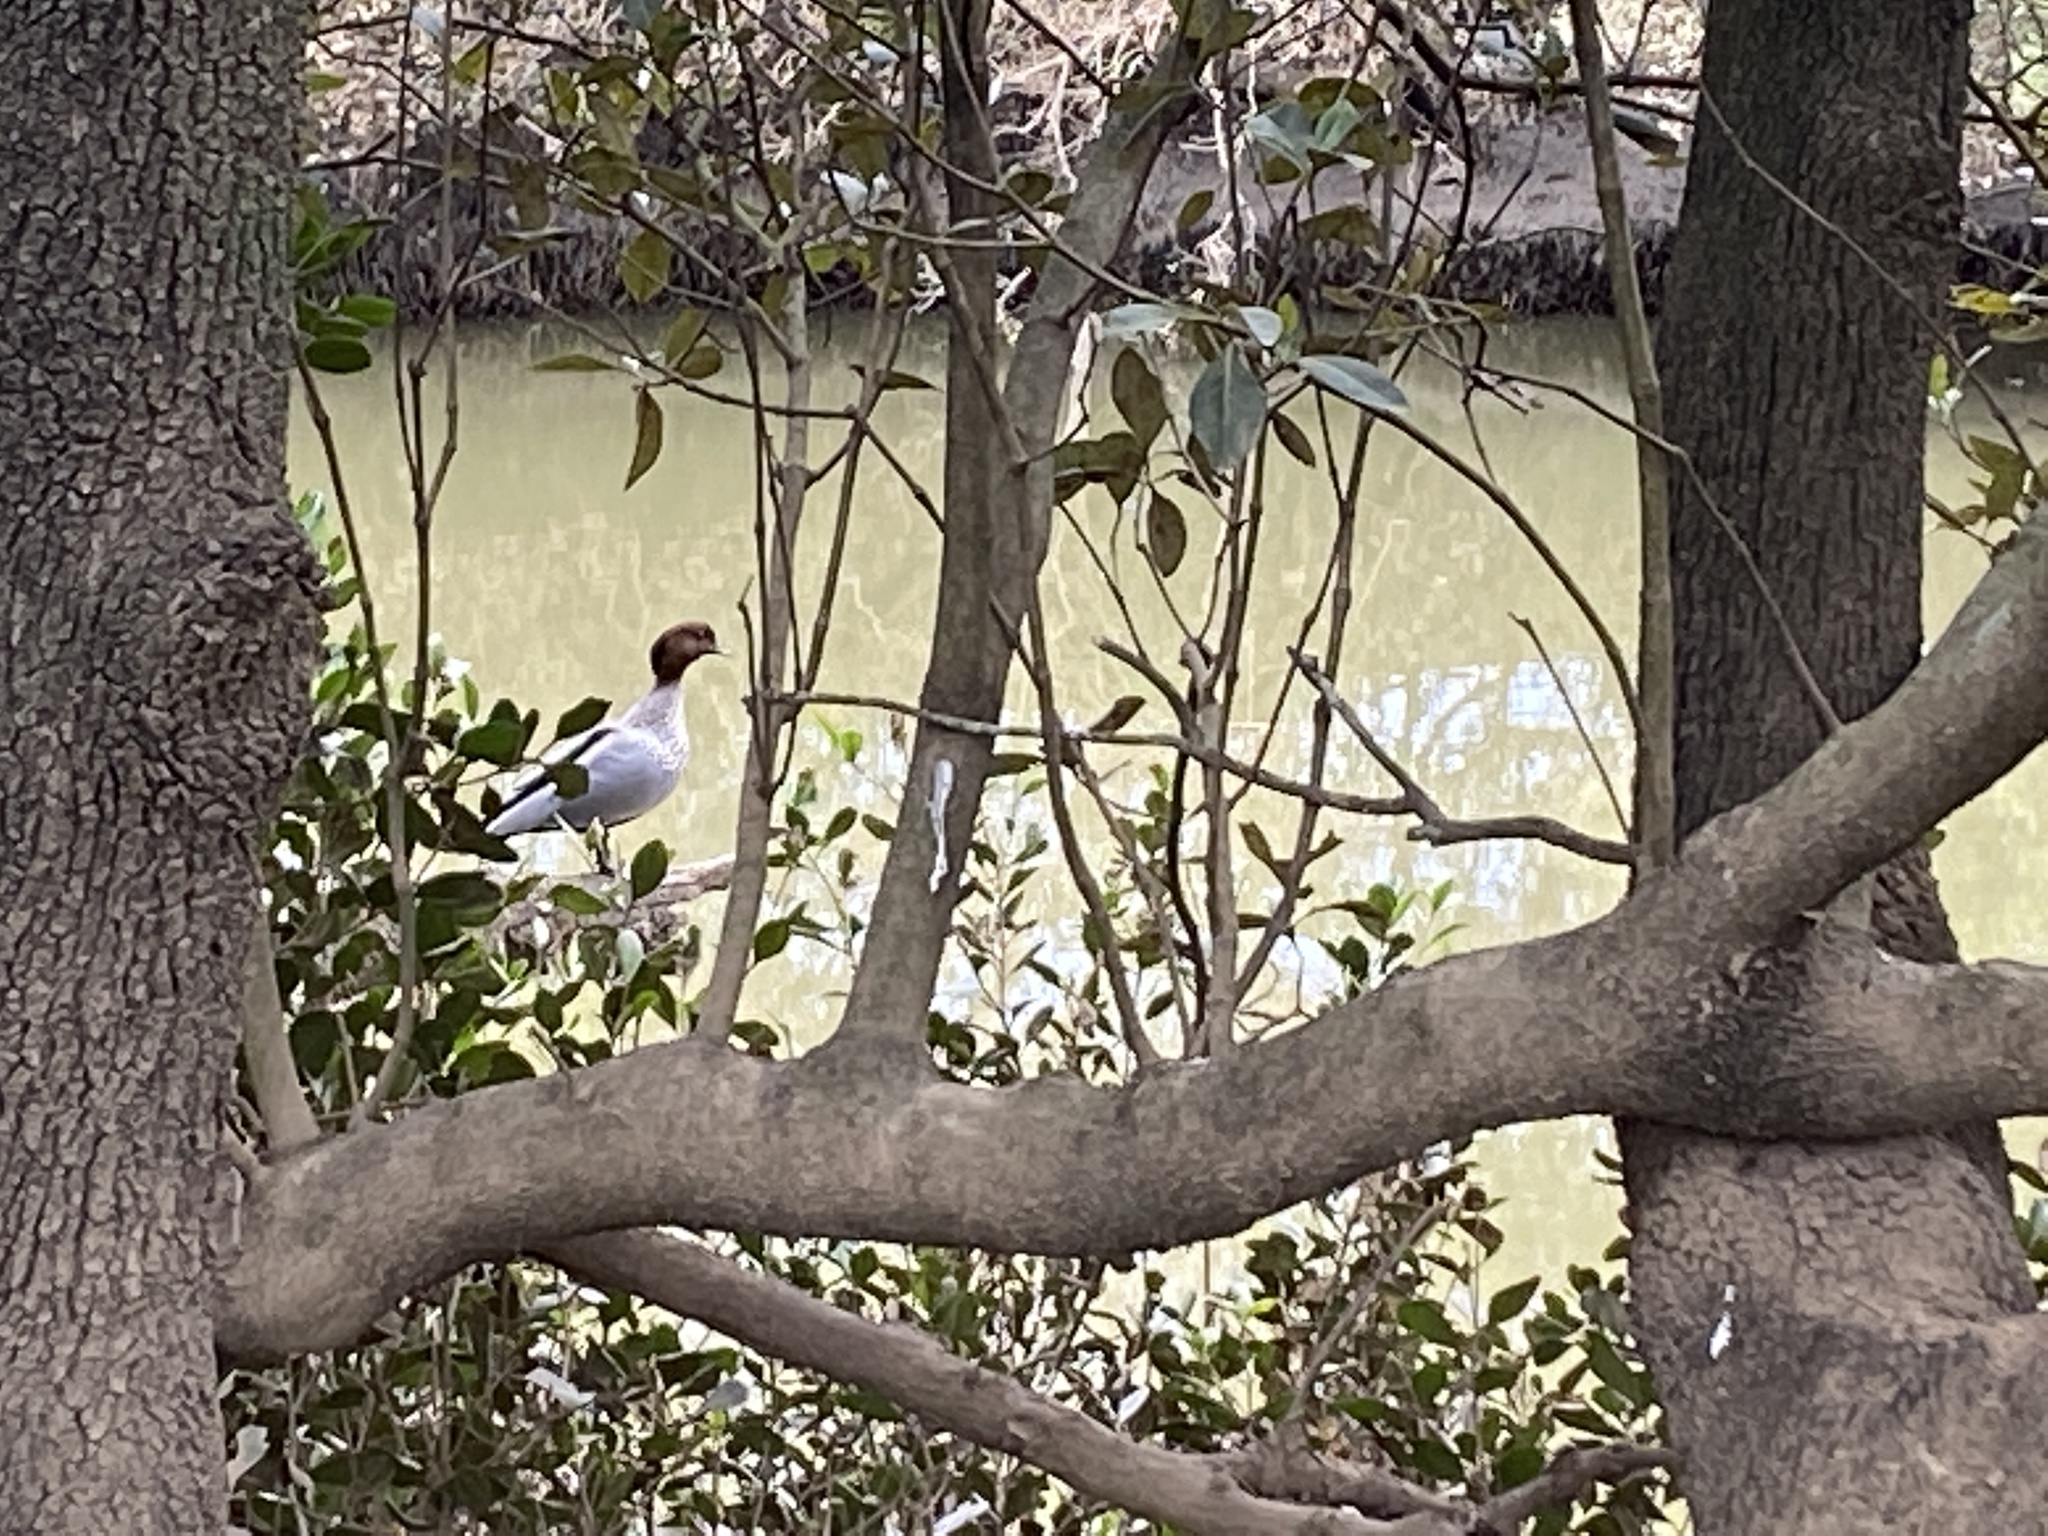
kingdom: Animalia
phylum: Chordata
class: Aves
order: Anseriformes
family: Anatidae
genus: Chenonetta
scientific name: Chenonetta jubata
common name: Maned duck
